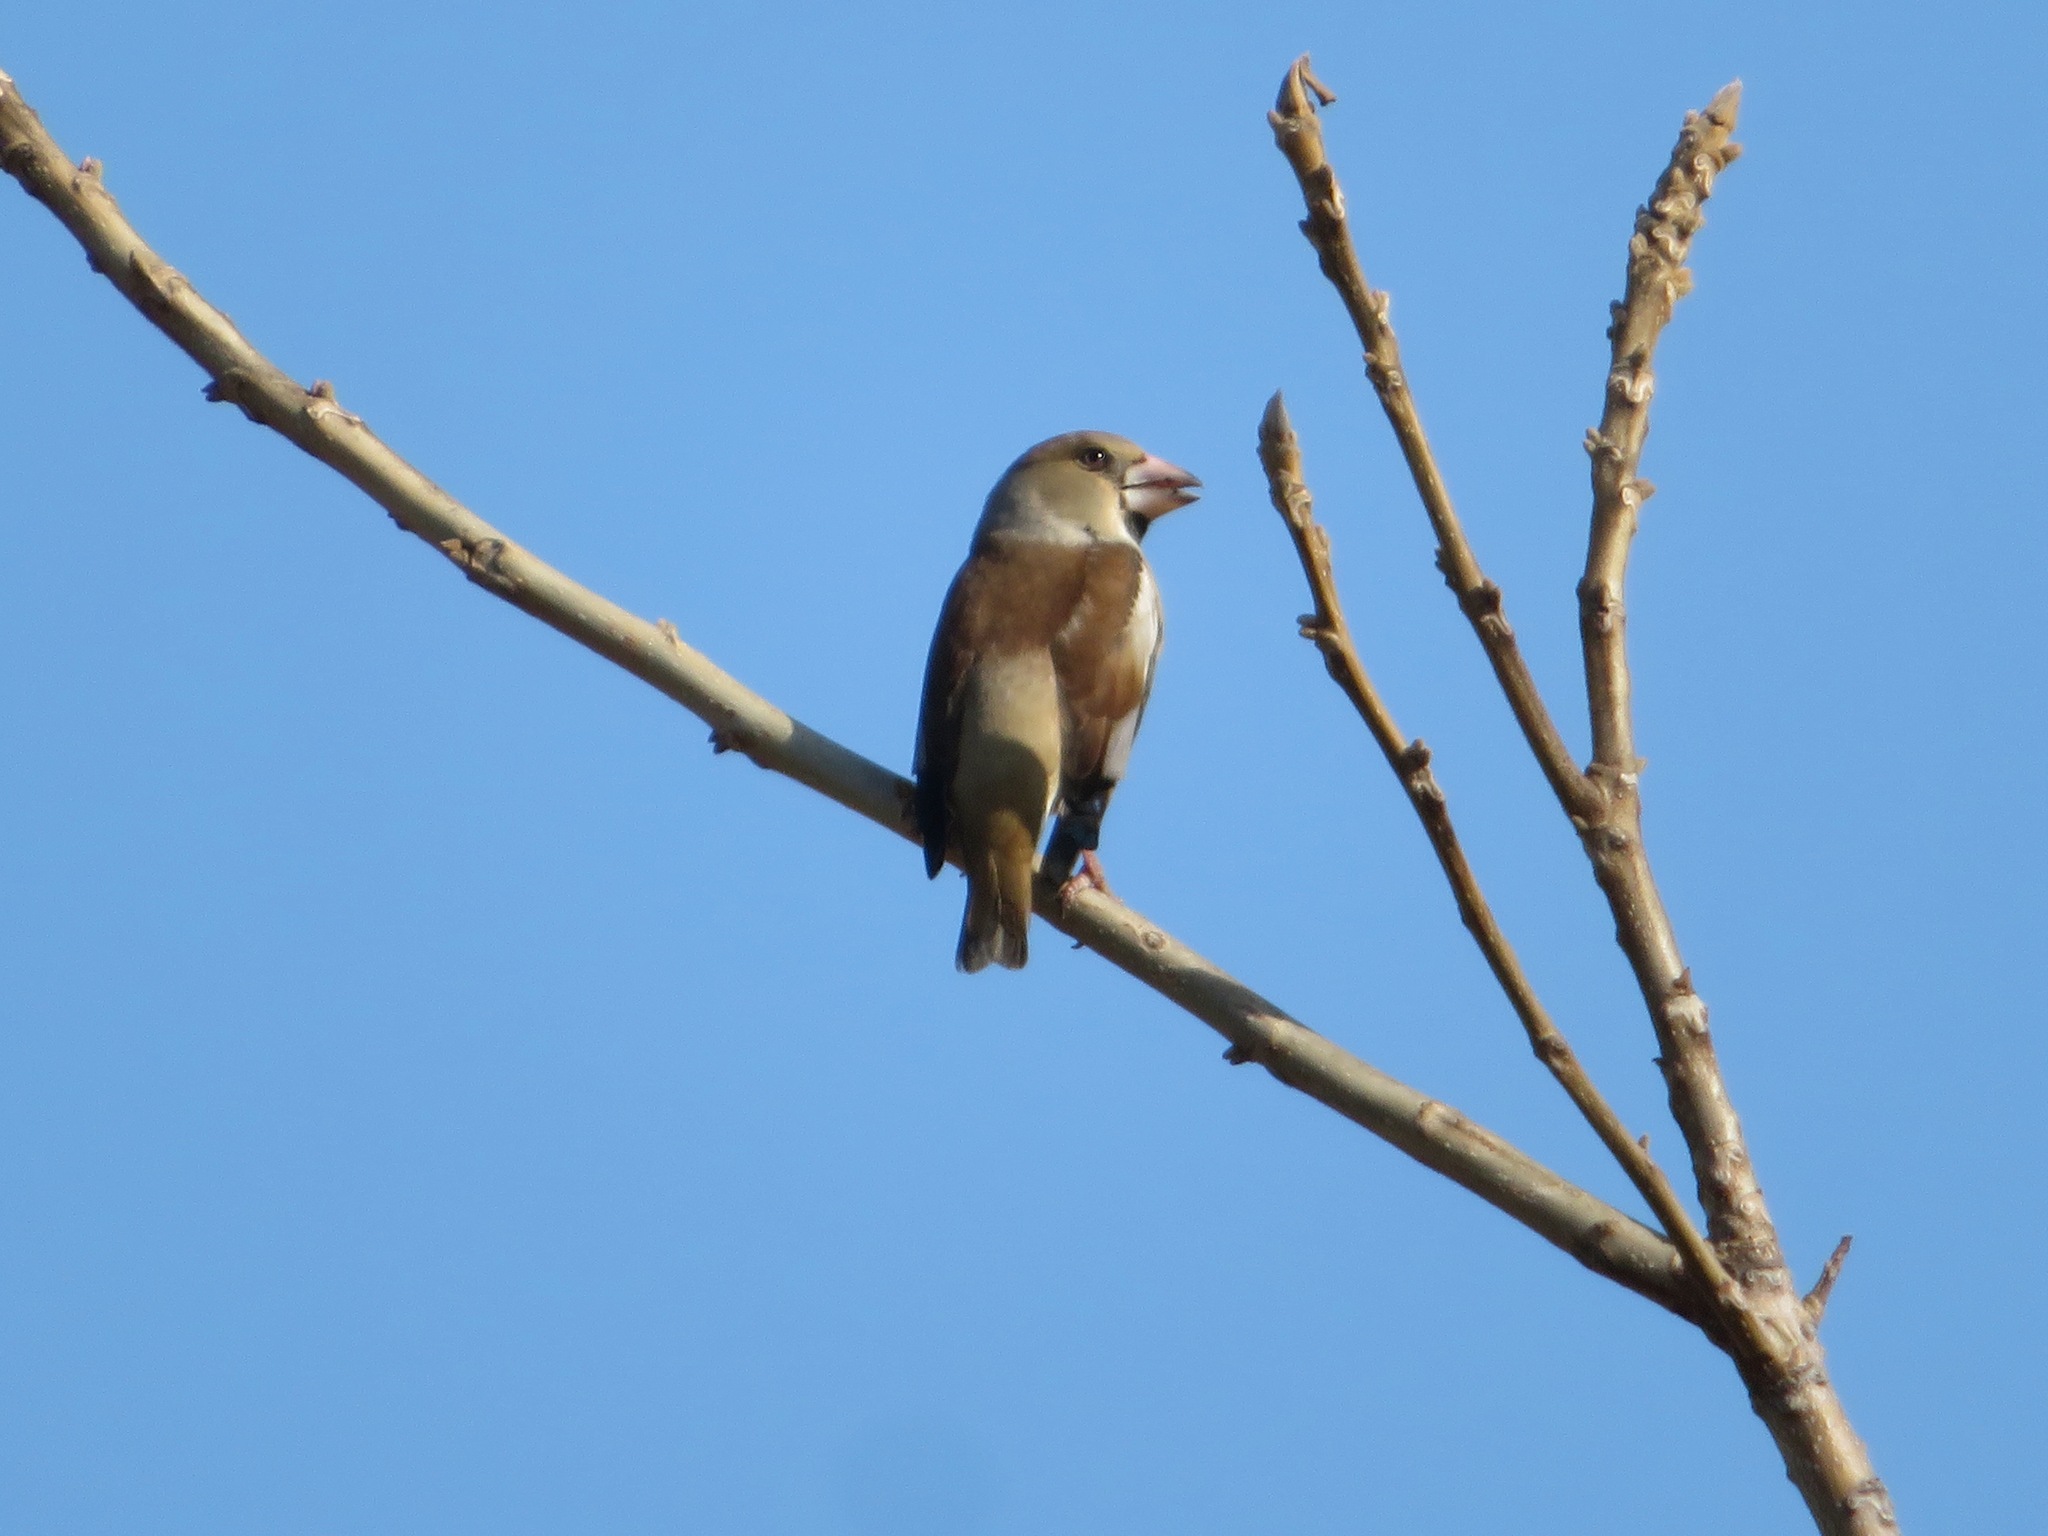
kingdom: Animalia
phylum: Chordata
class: Aves
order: Passeriformes
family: Fringillidae
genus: Coccothraustes
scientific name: Coccothraustes coccothraustes
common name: Hawfinch
